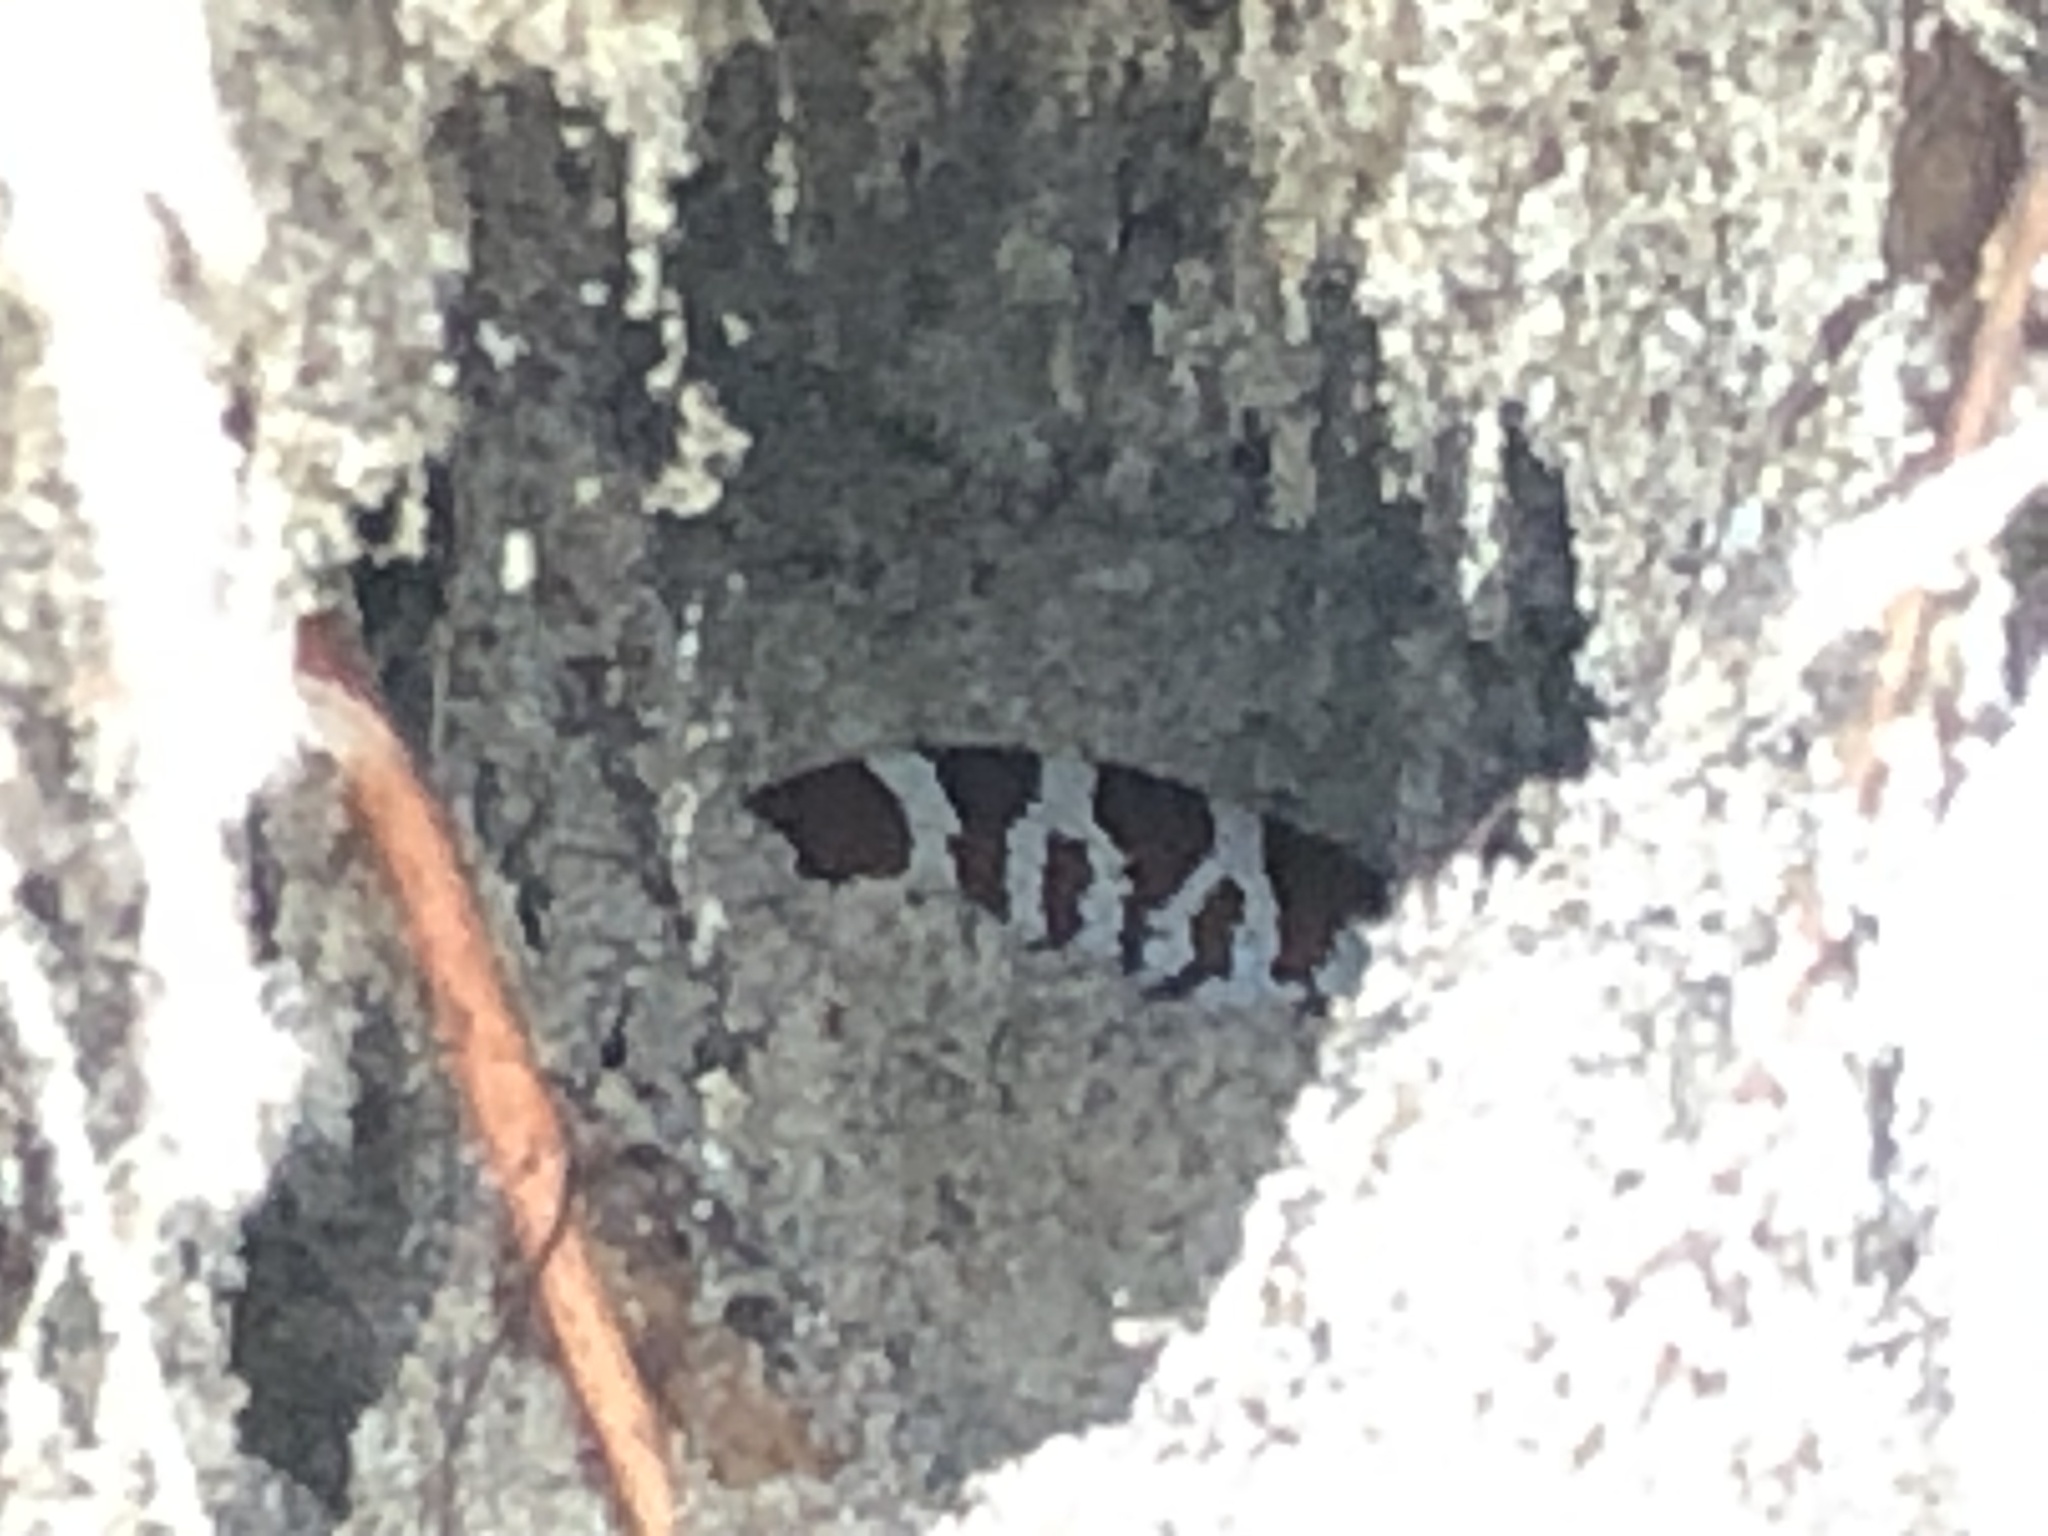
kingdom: Animalia
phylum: Chordata
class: Squamata
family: Colubridae
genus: Lampropeltis
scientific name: Lampropeltis triangulum
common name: Eastern milksnake
